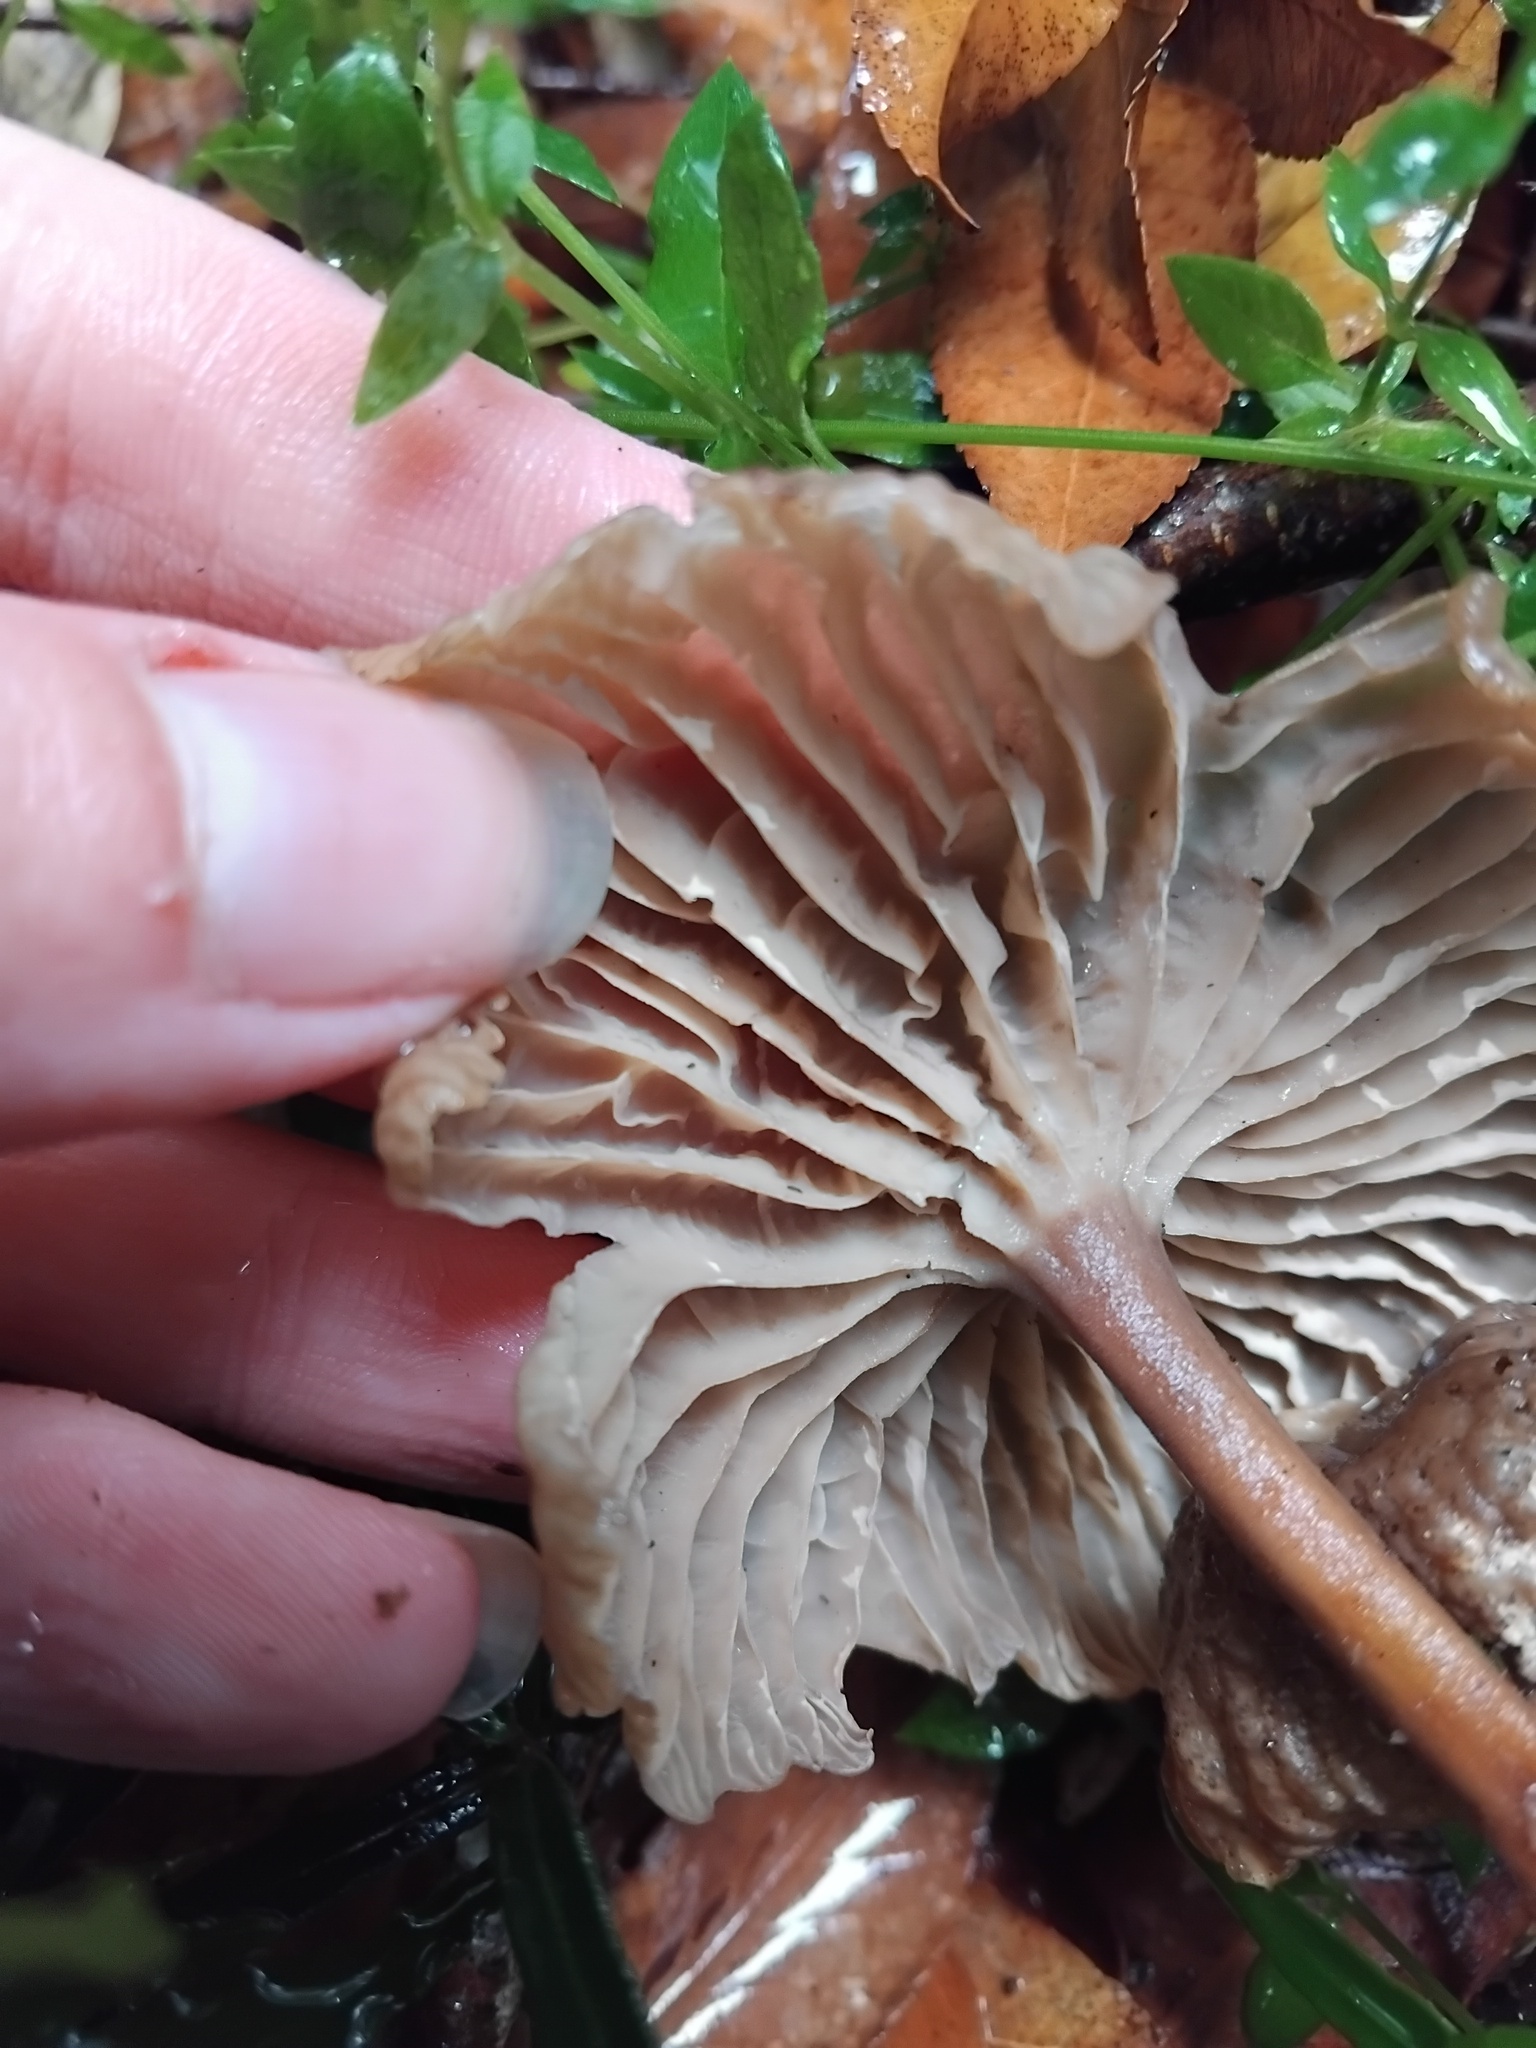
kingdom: Fungi
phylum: Basidiomycota
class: Agaricomycetes
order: Agaricales
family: Tricholomataceae
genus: Collybia
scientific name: Collybia kurara
